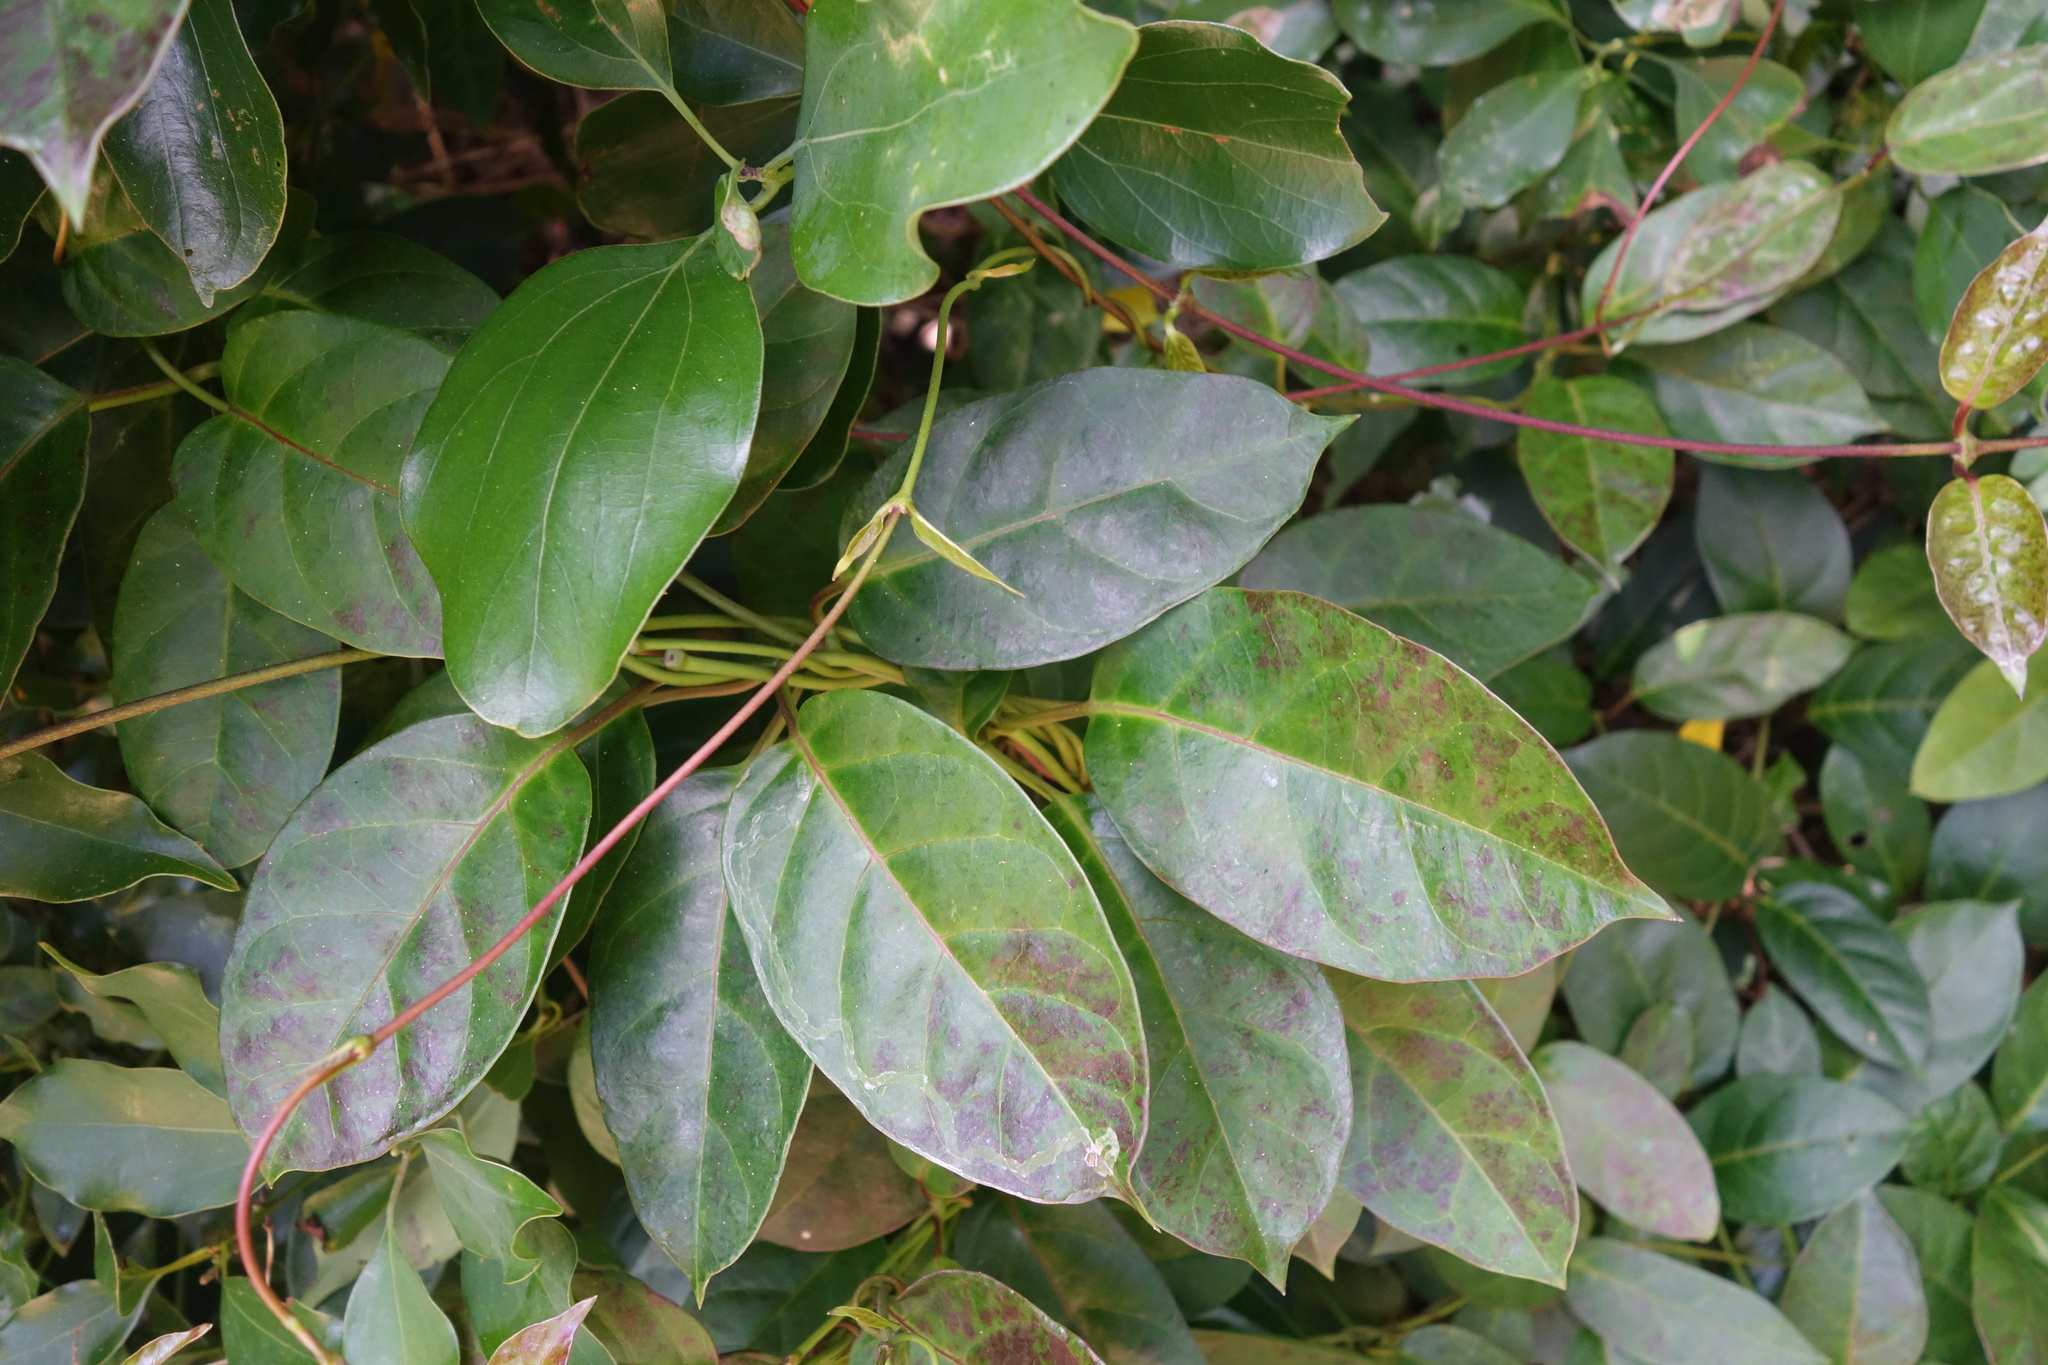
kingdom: Plantae
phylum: Tracheophyta
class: Magnoliopsida
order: Gentianales
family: Rubiaceae
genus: Paederia
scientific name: Paederia foetida
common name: Stinkvine
